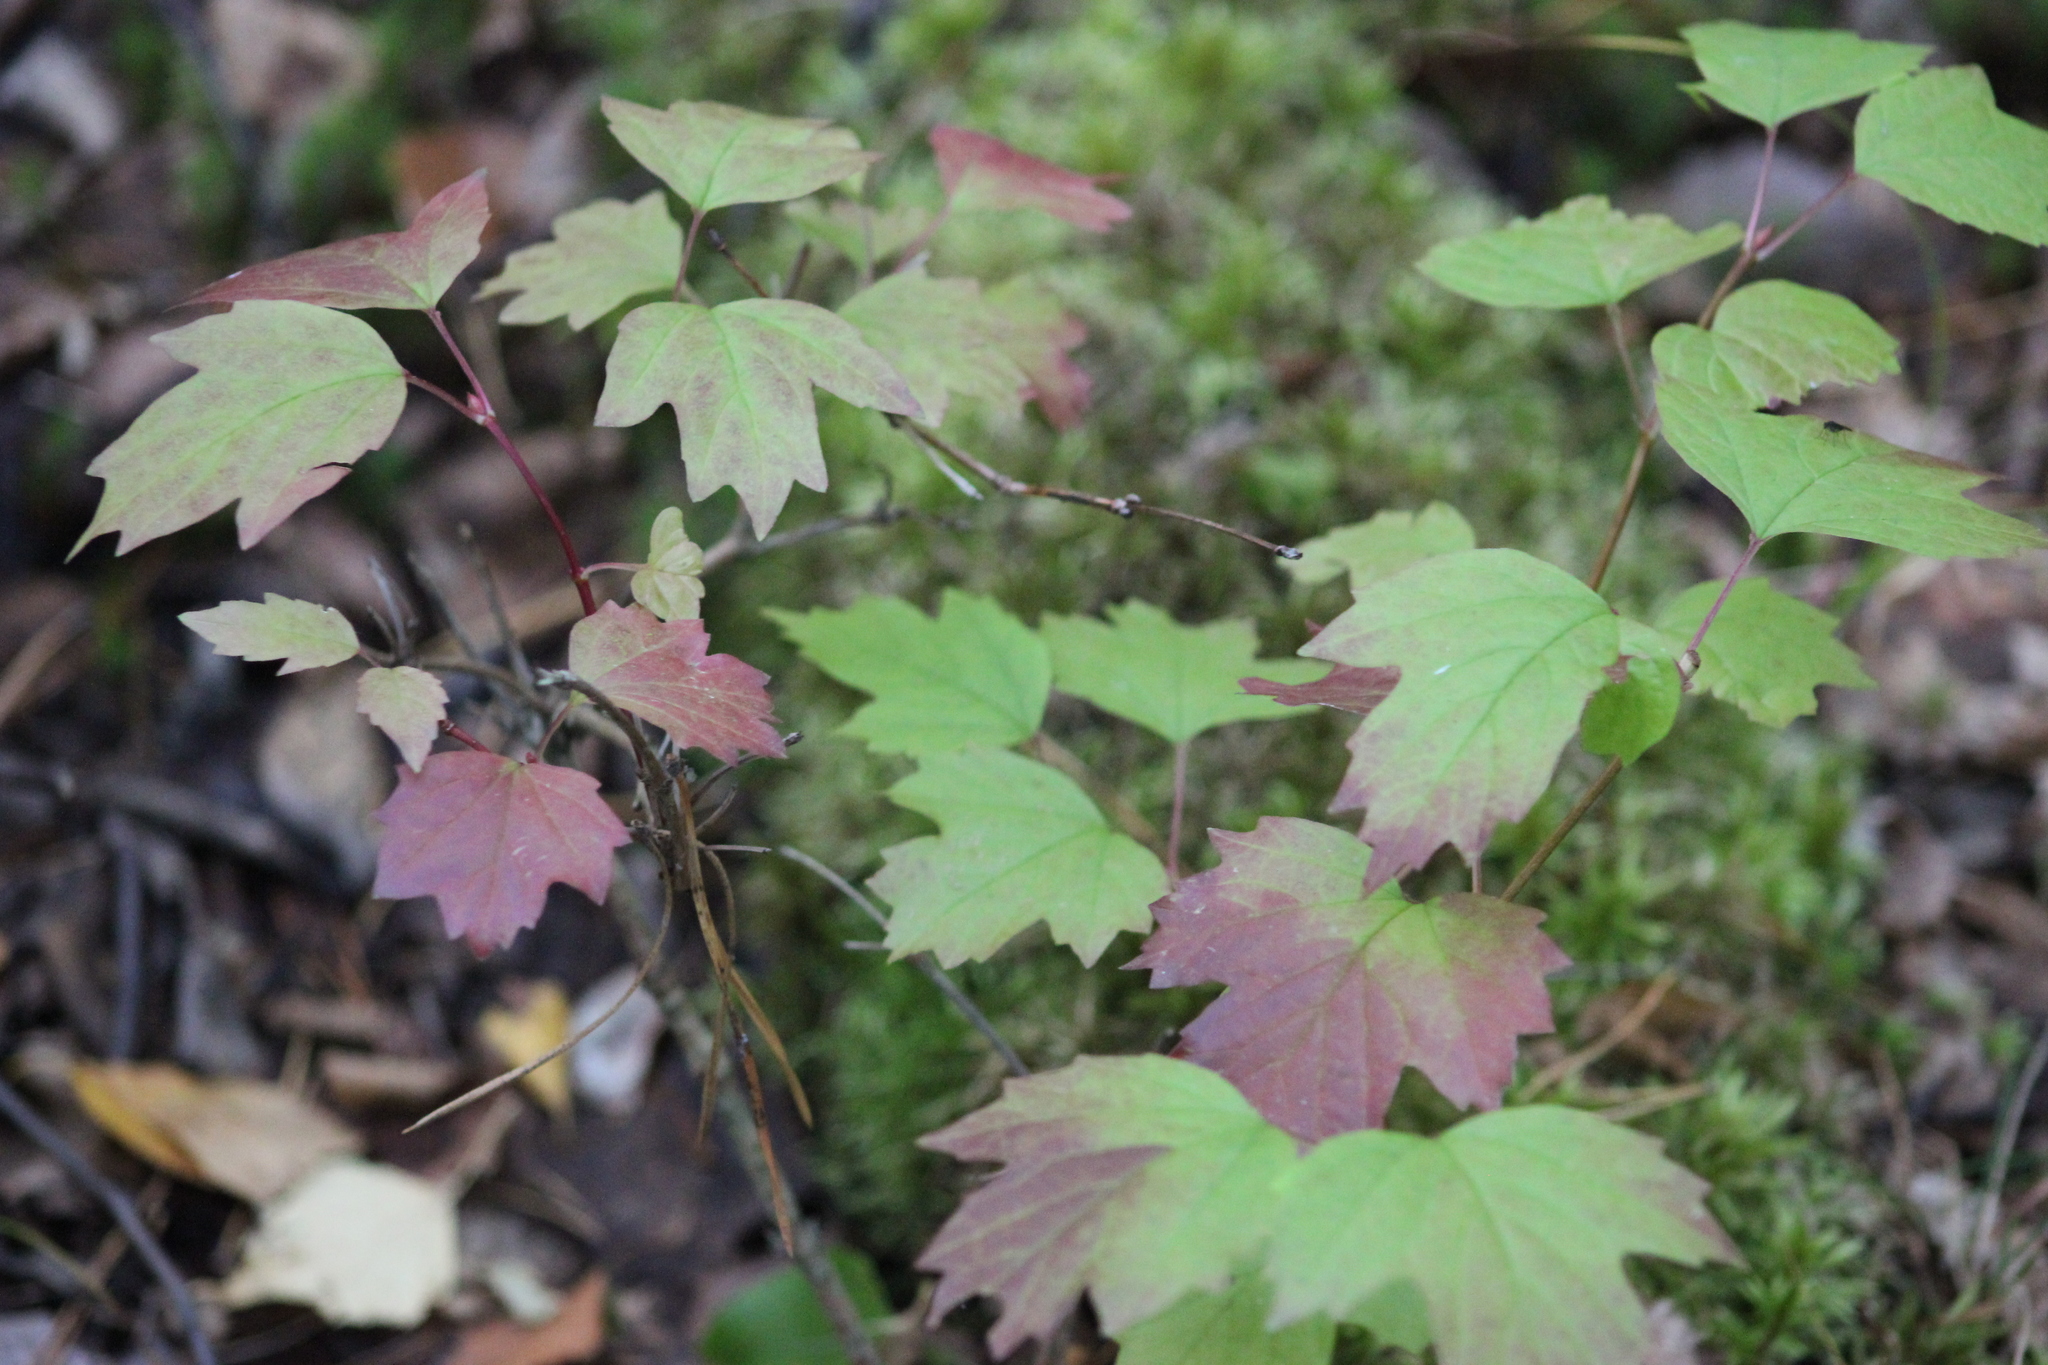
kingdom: Plantae
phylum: Tracheophyta
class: Magnoliopsida
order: Dipsacales
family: Viburnaceae
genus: Viburnum
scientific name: Viburnum opulus
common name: Guelder-rose
